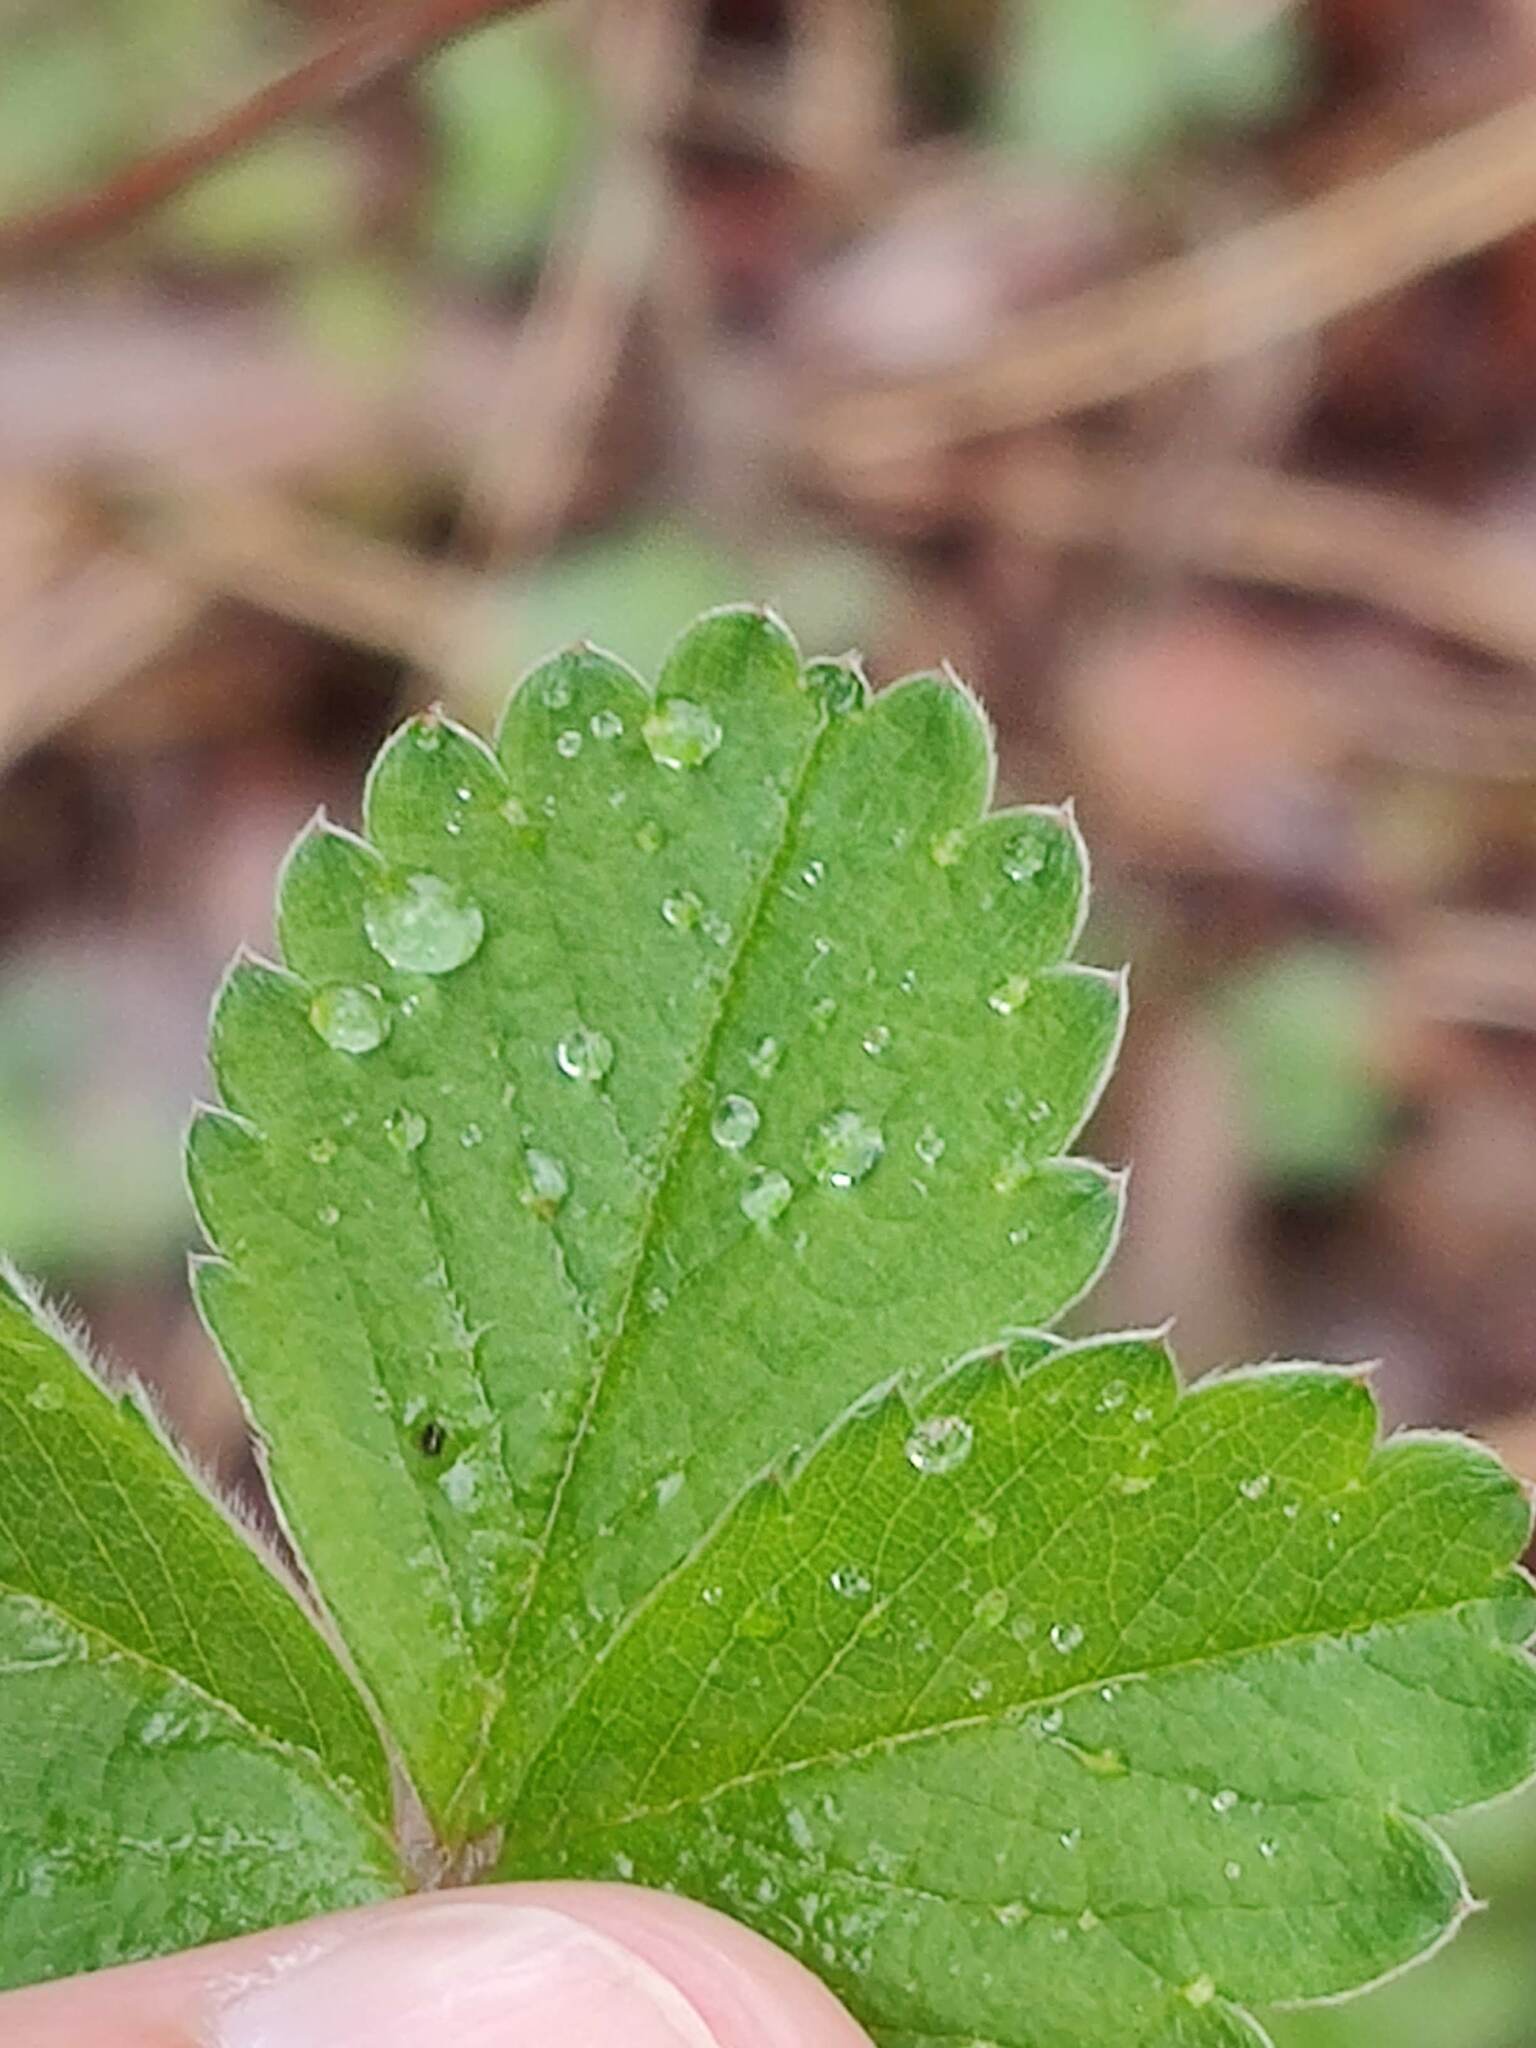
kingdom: Plantae
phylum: Tracheophyta
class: Magnoliopsida
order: Rosales
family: Rosaceae
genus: Potentilla
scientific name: Potentilla sterilis
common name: Barren strawberry
